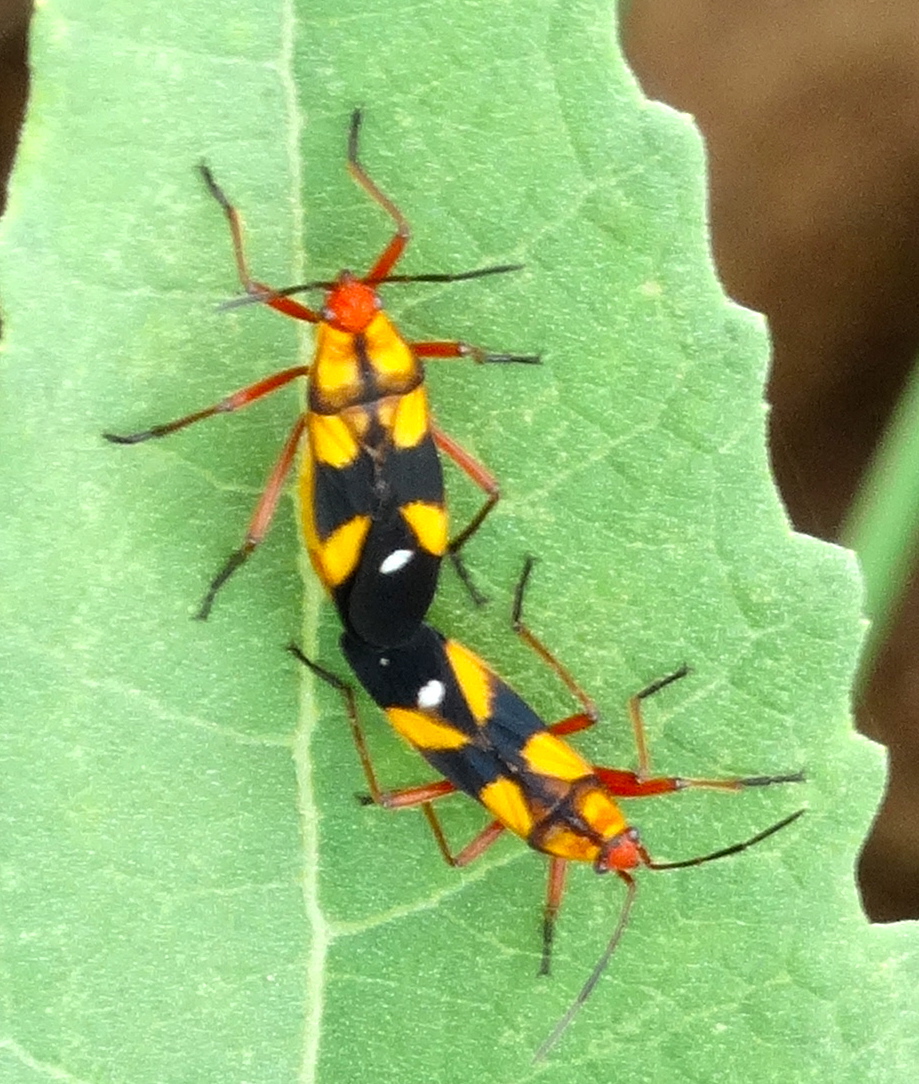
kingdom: Animalia
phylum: Arthropoda
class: Insecta
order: Hemiptera
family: Lygaeidae
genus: Oncopeltus
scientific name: Oncopeltus guttaloides
